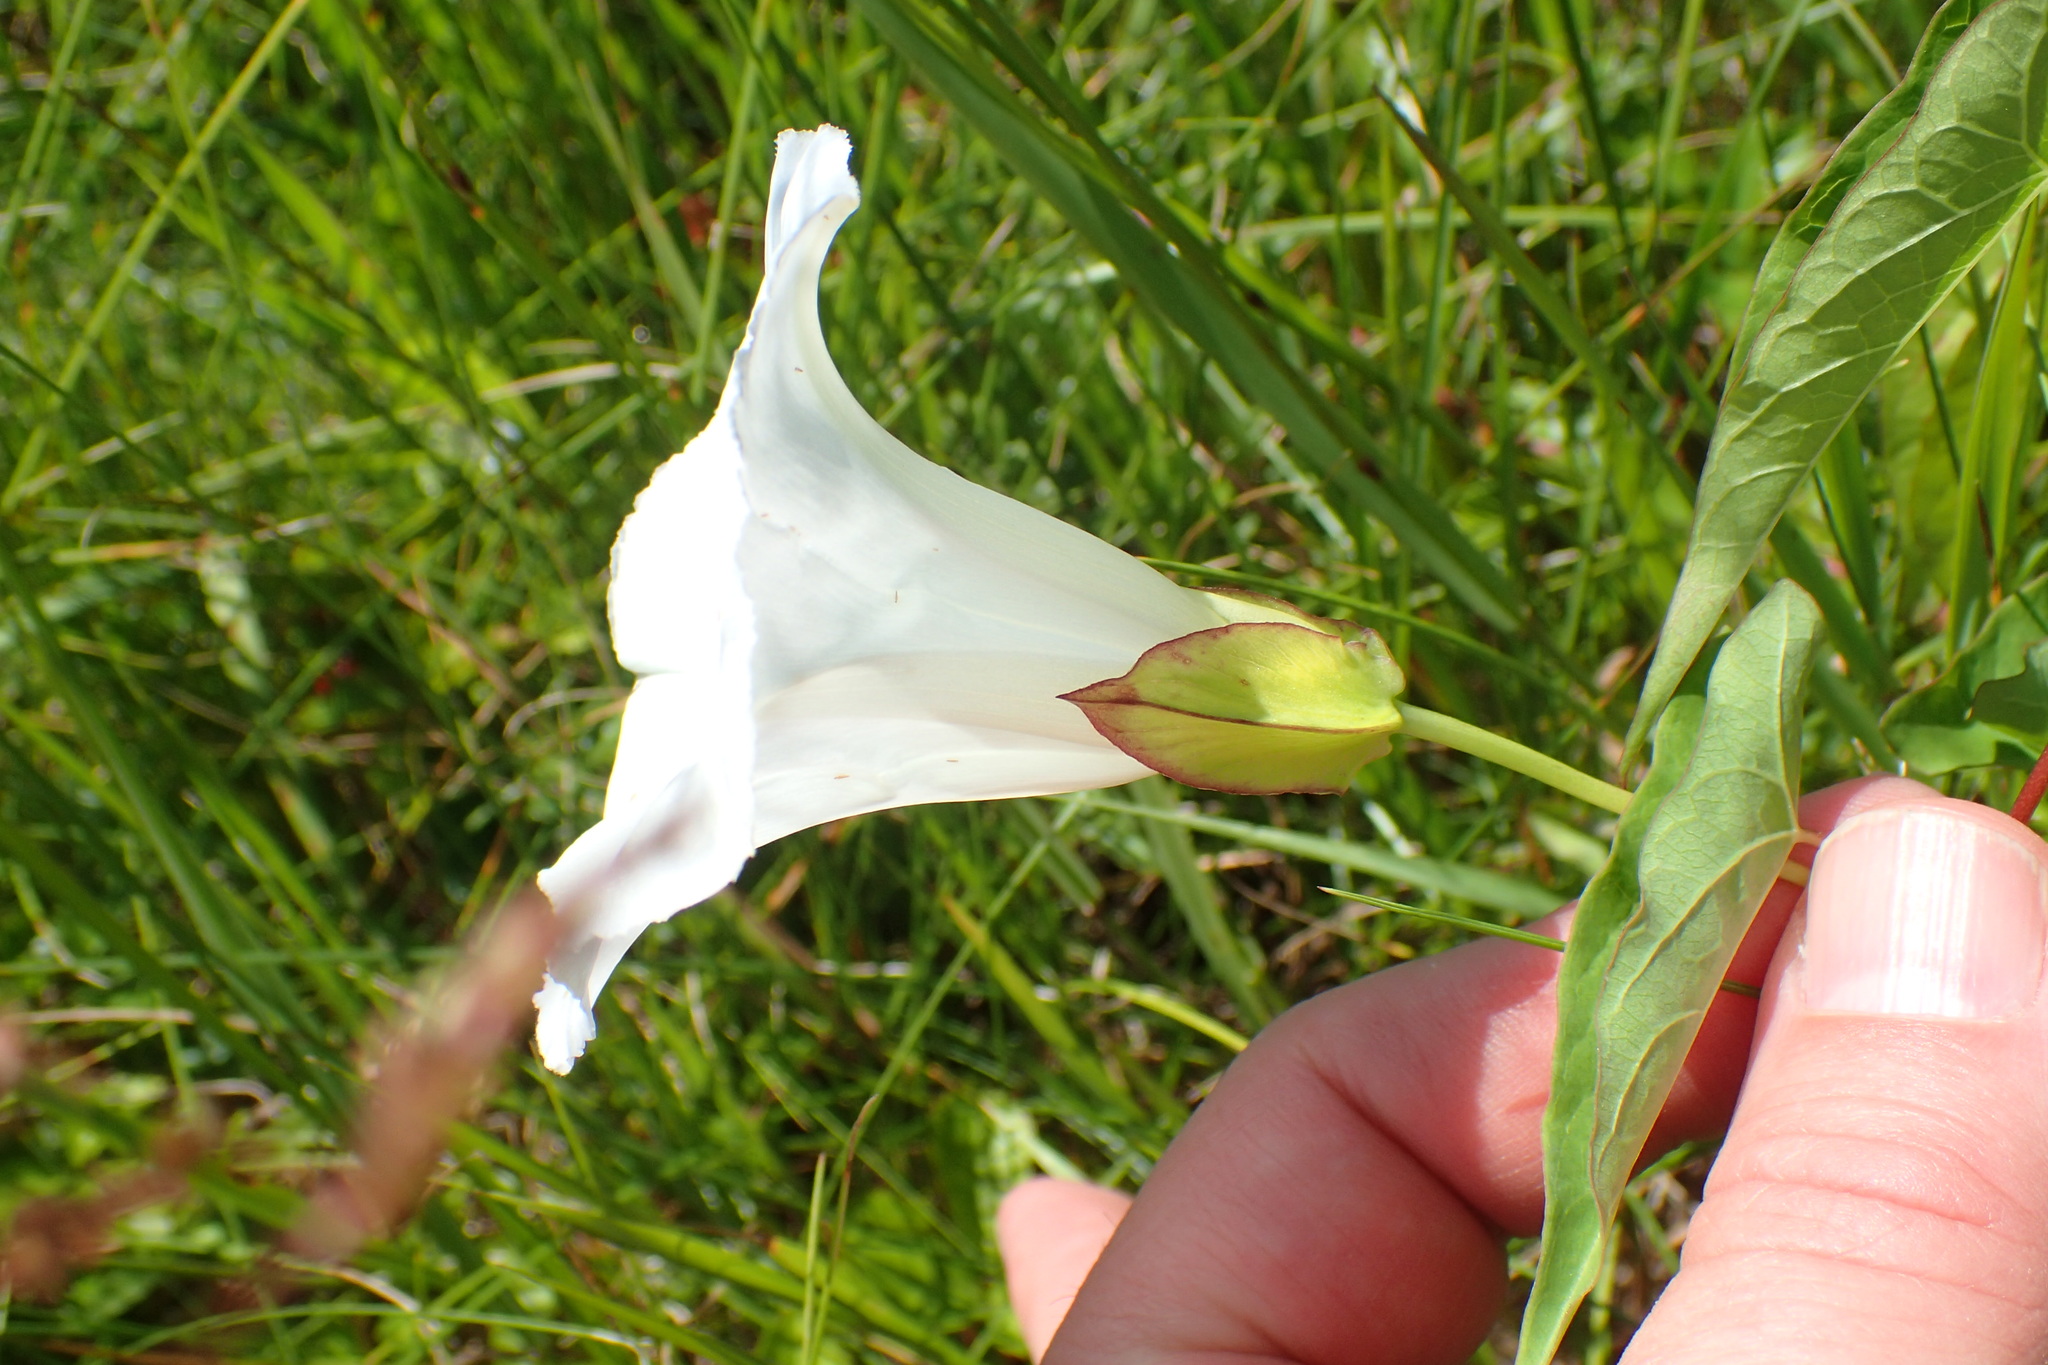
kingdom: Plantae
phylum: Tracheophyta
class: Magnoliopsida
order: Solanales
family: Convolvulaceae
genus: Calystegia
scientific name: Calystegia sepium
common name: Hedge bindweed
